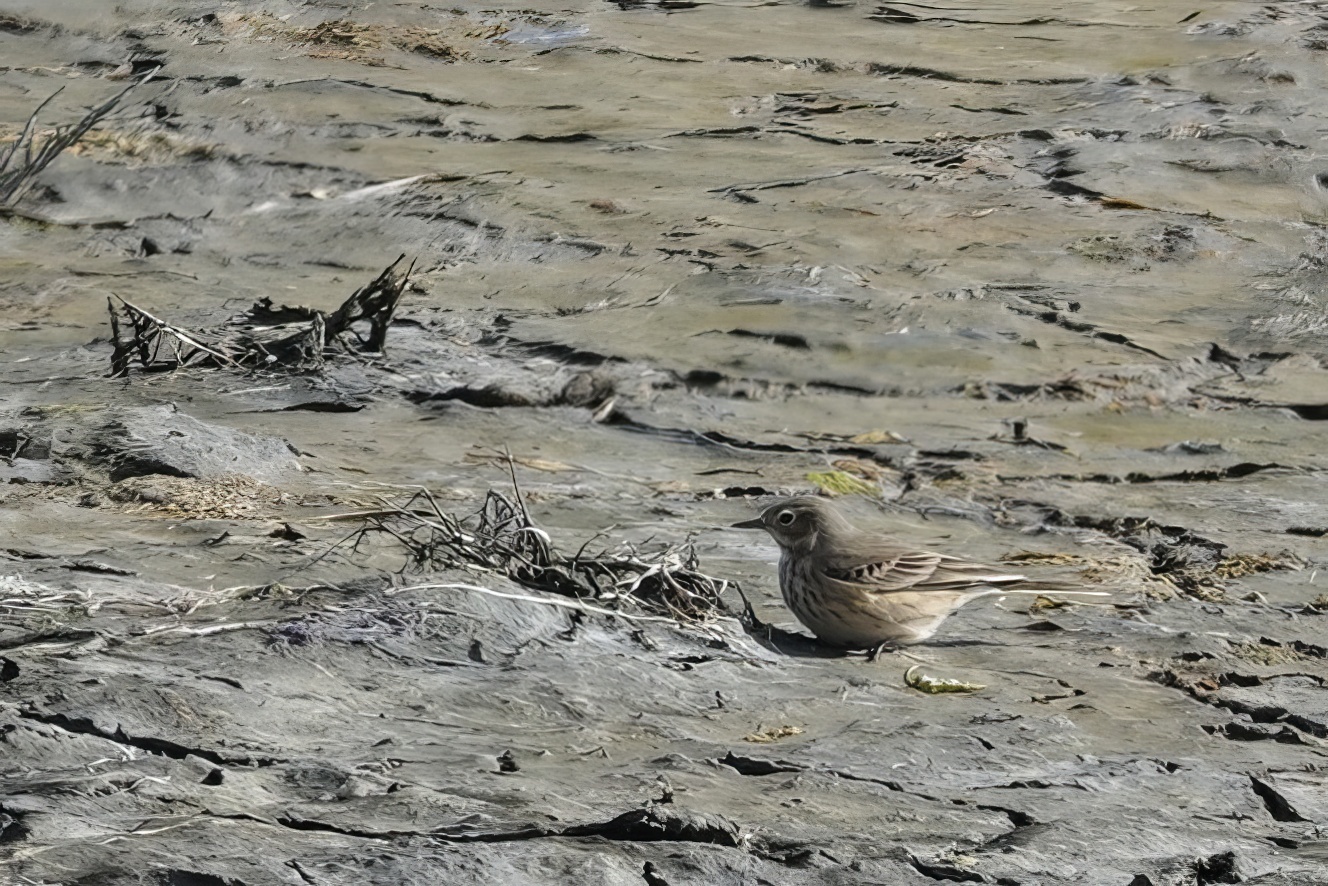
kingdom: Animalia
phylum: Chordata
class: Aves
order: Passeriformes
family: Motacillidae
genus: Anthus
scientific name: Anthus rubescens
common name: Buff-bellied pipit
